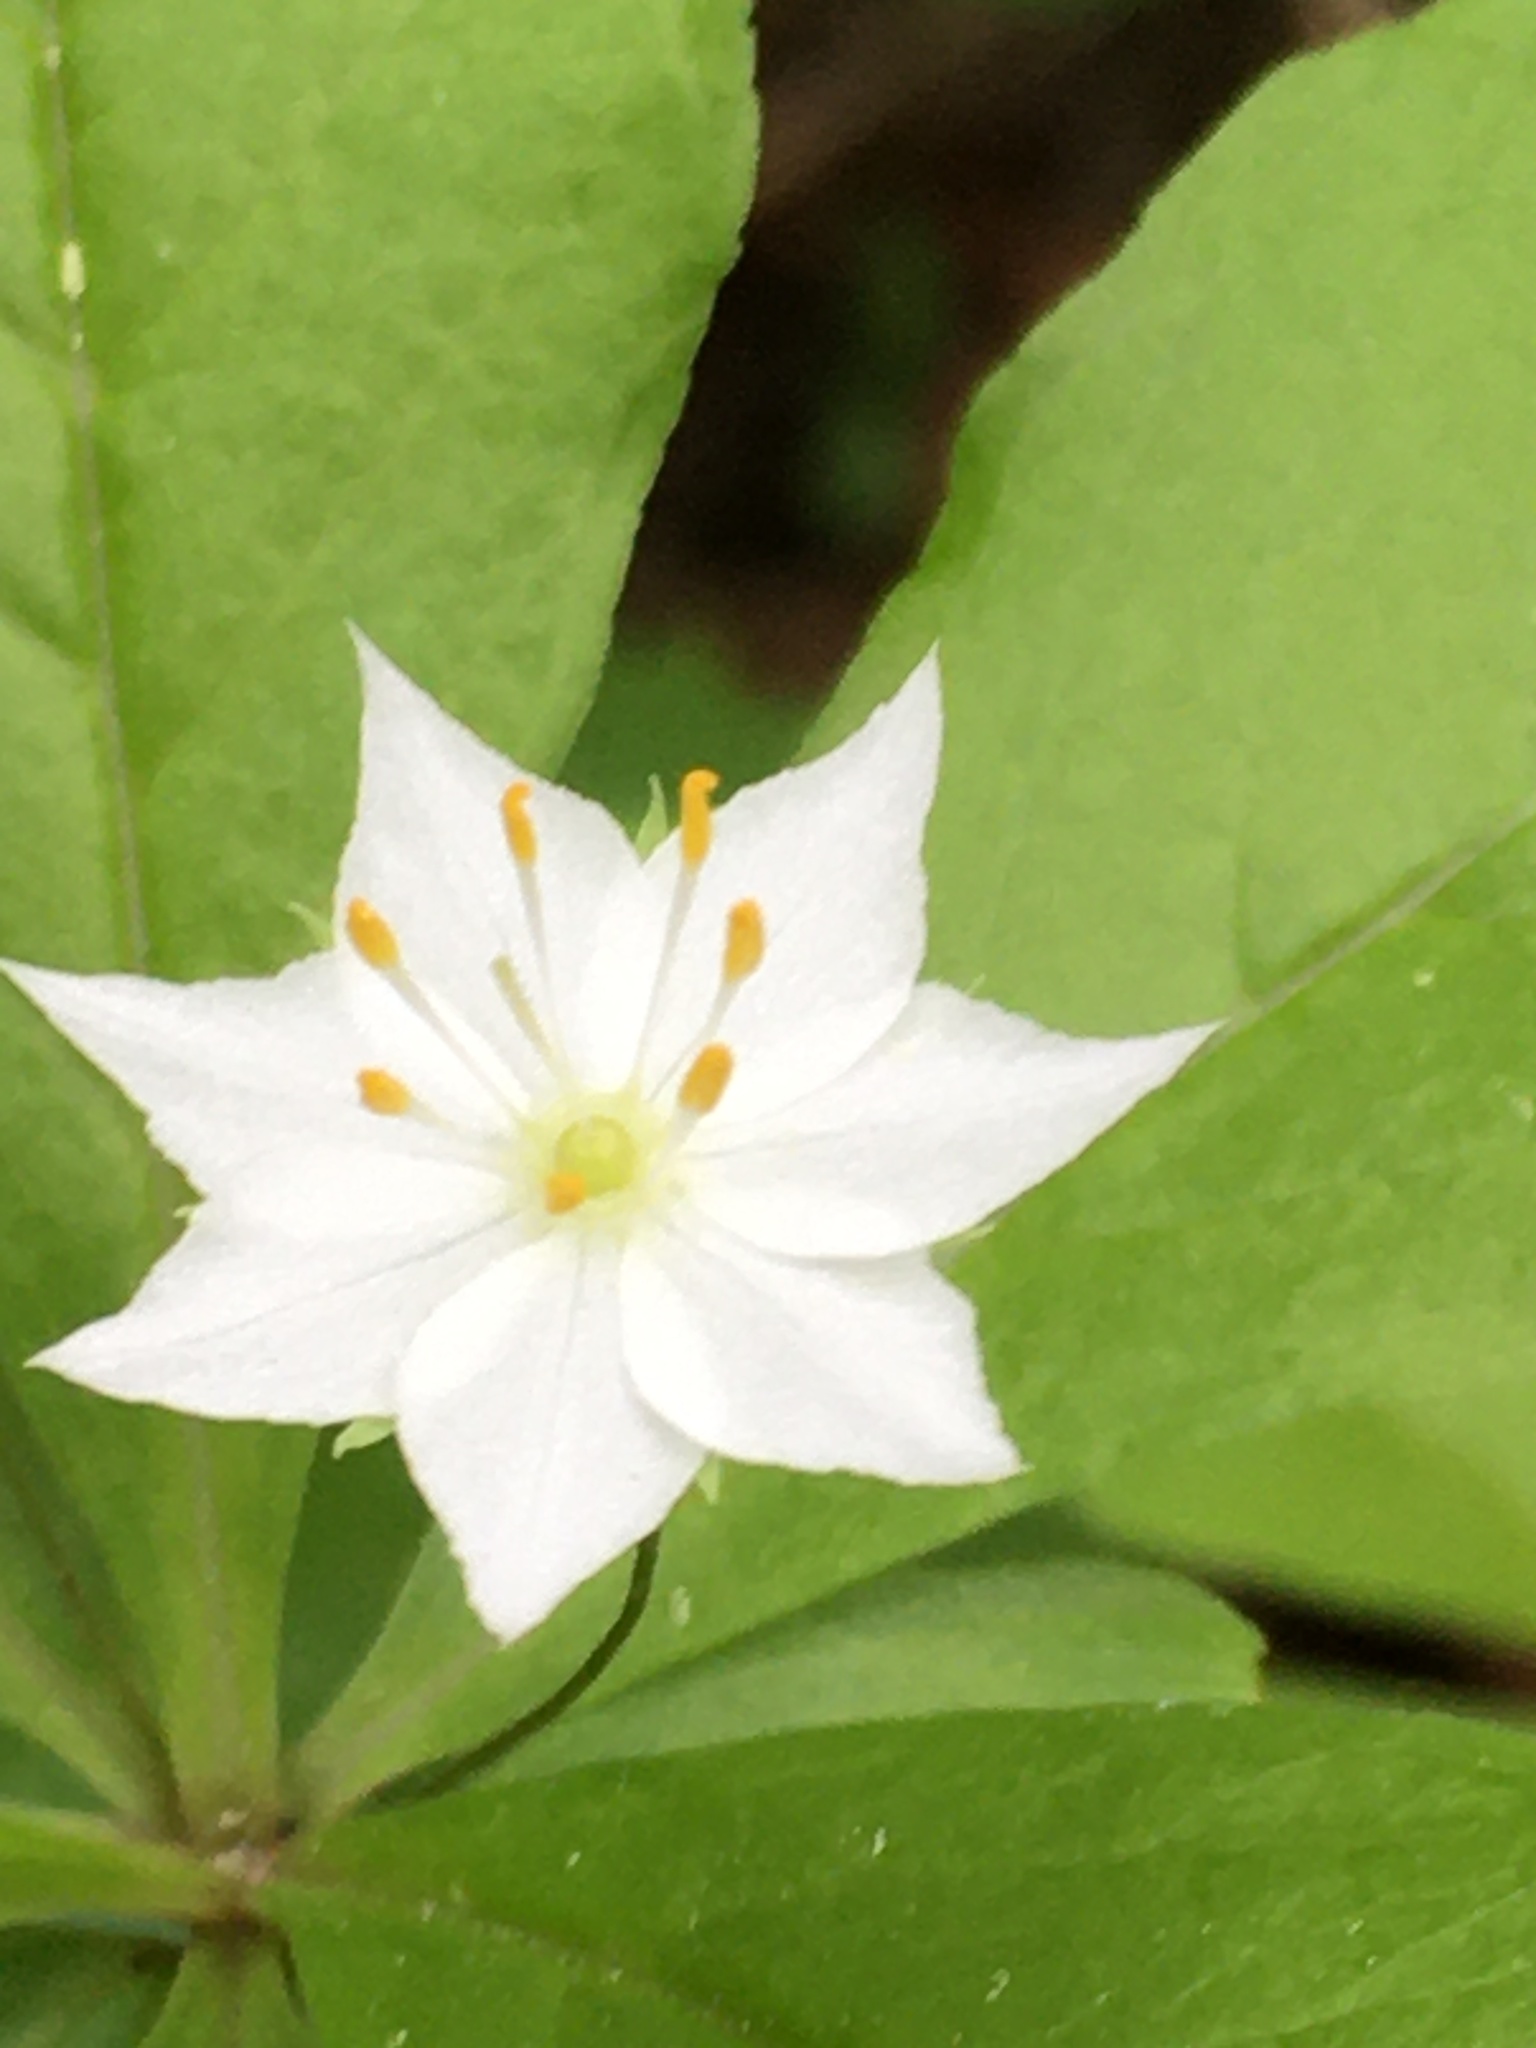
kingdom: Plantae
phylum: Tracheophyta
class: Magnoliopsida
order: Ericales
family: Primulaceae
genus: Lysimachia
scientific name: Lysimachia borealis
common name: American starflower
